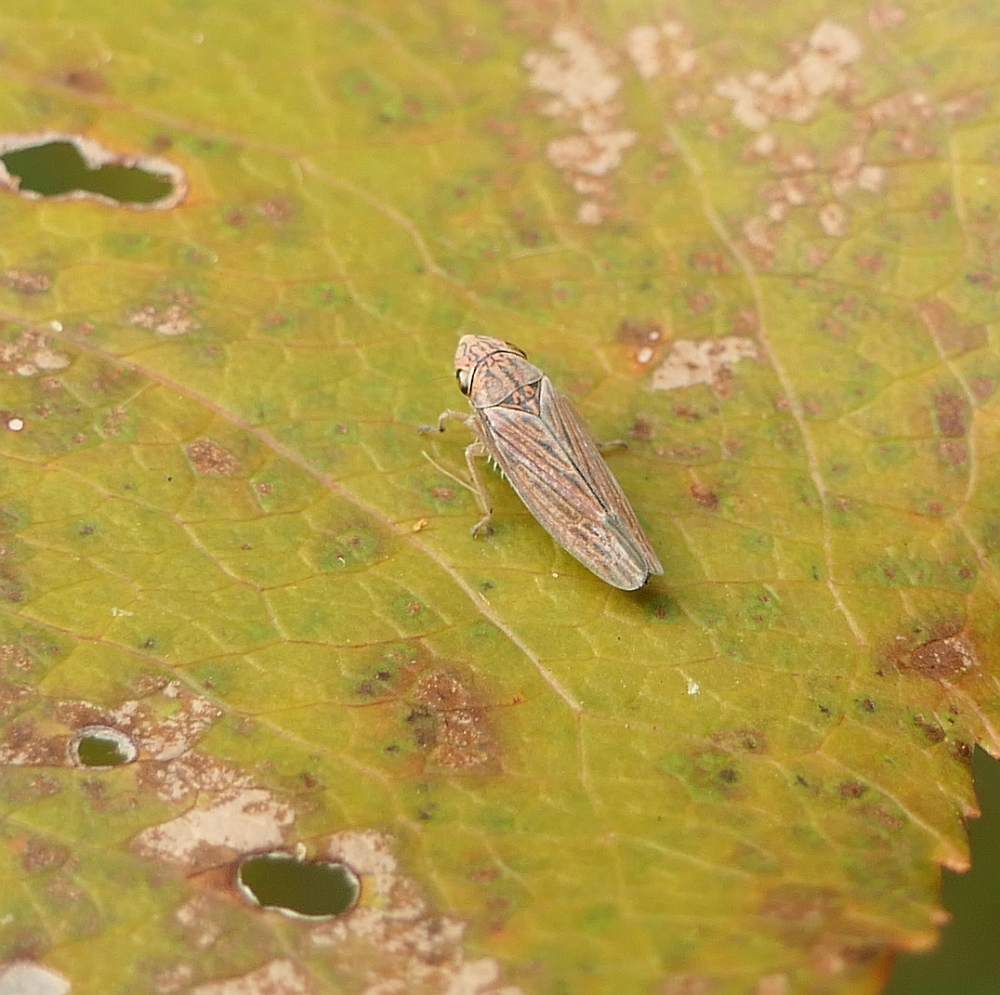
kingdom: Animalia
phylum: Arthropoda
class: Insecta
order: Hemiptera
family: Cicadellidae
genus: Neokolla
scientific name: Neokolla hieroglyphica
